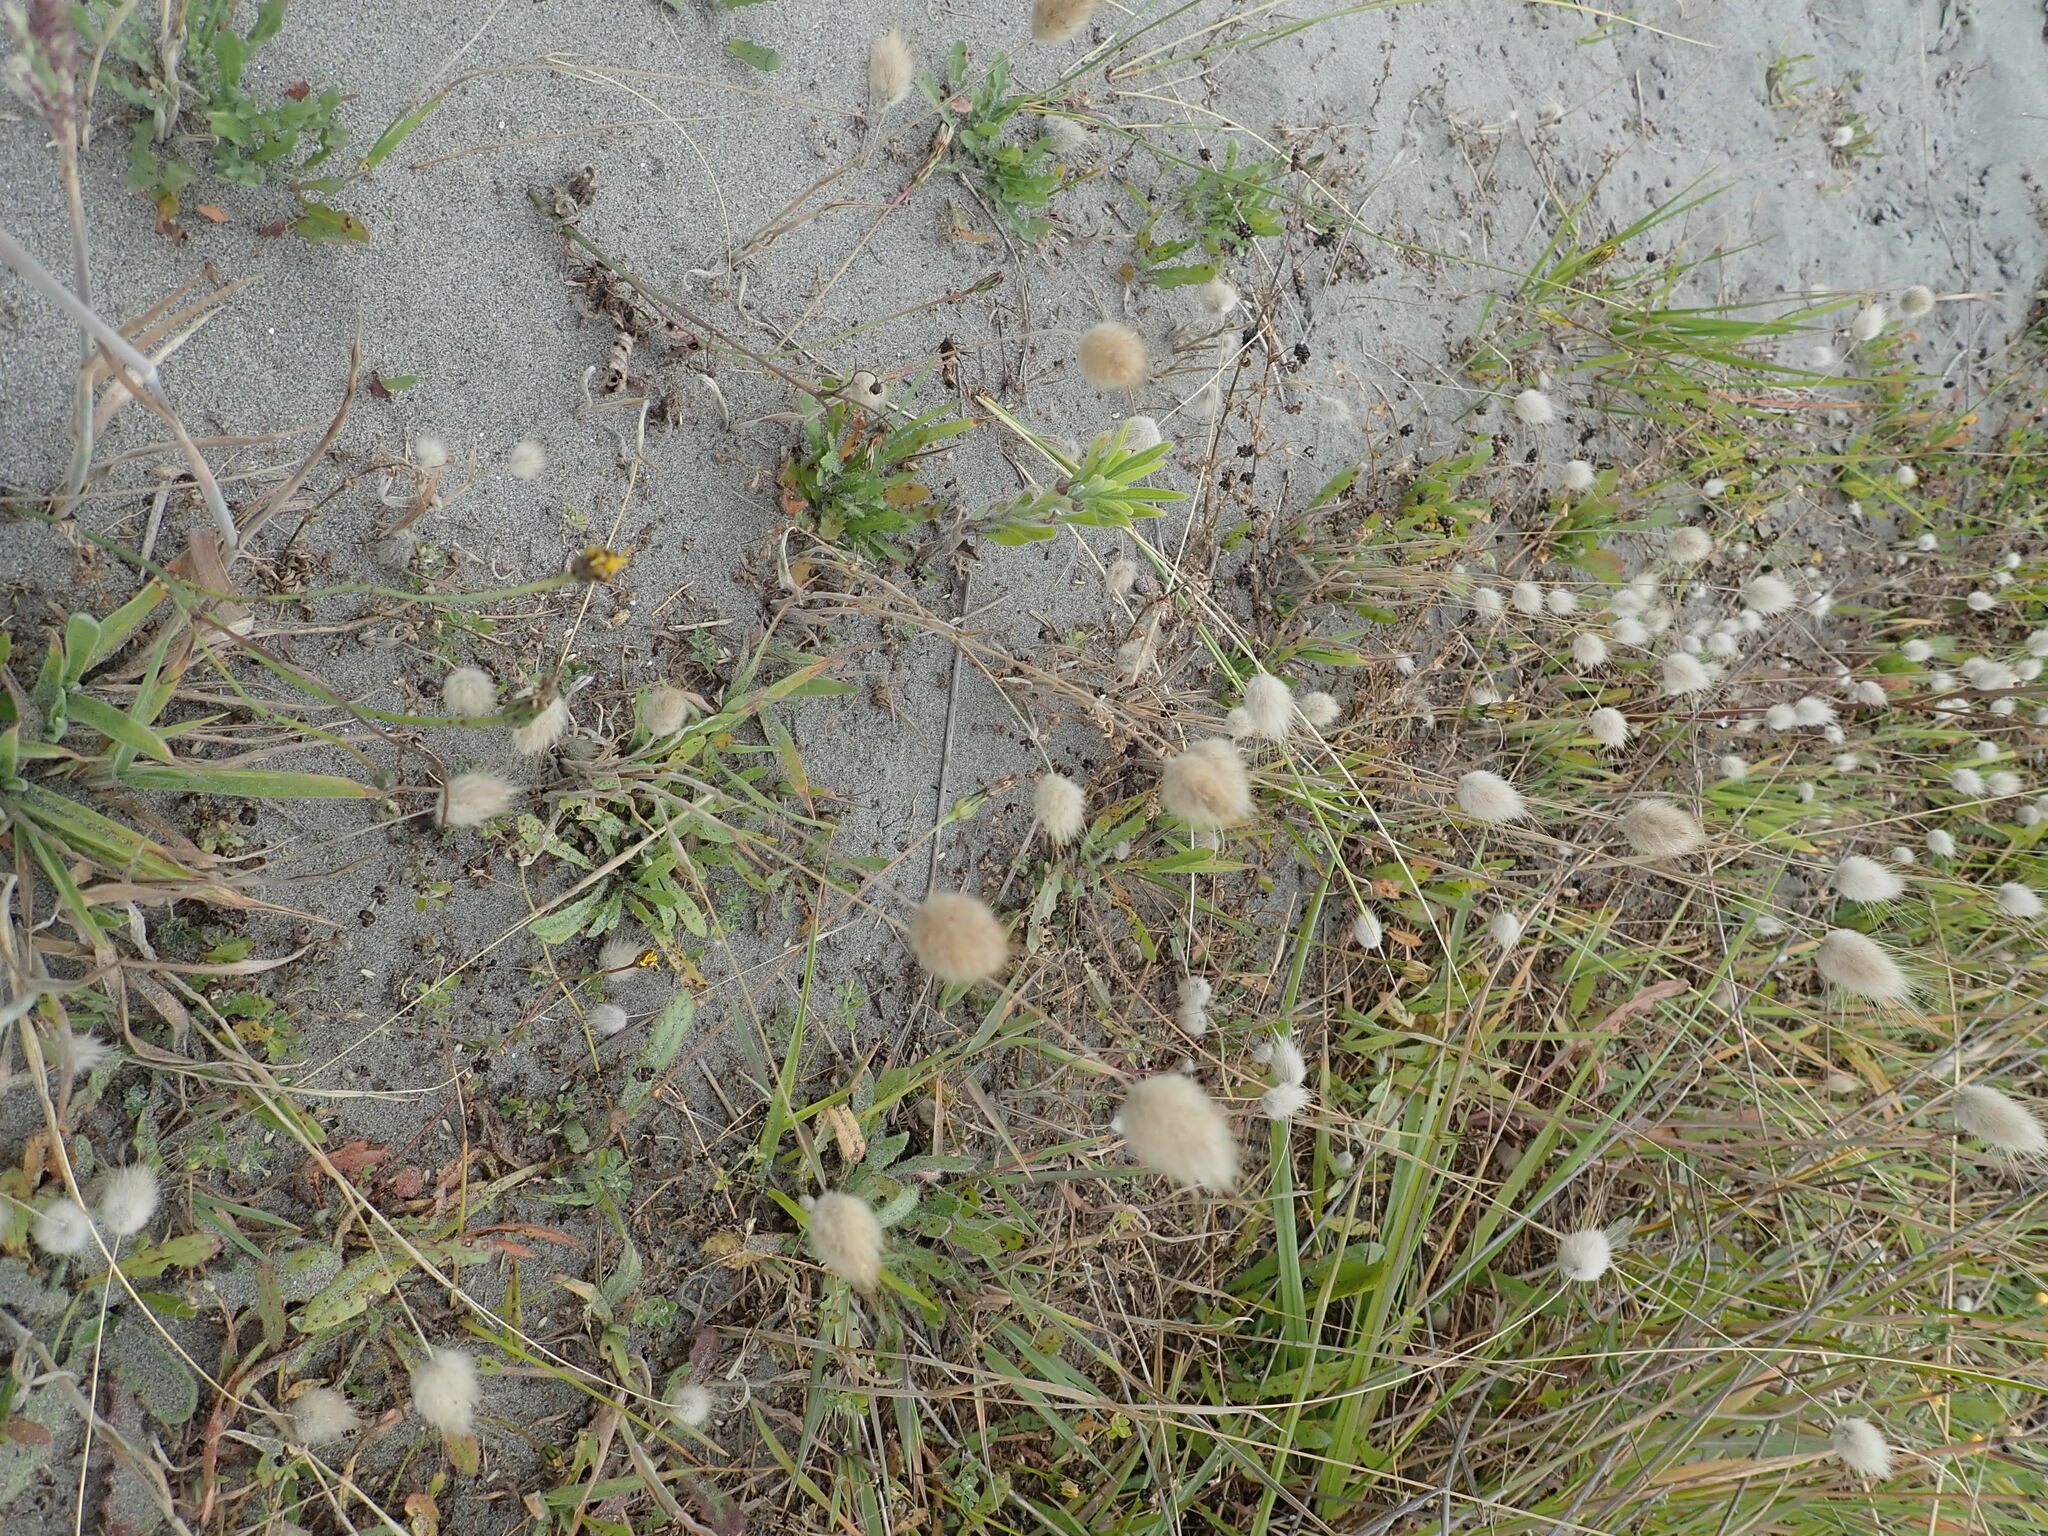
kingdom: Plantae
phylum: Tracheophyta
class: Liliopsida
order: Poales
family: Poaceae
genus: Lagurus
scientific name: Lagurus ovatus
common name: Hare's-tail
